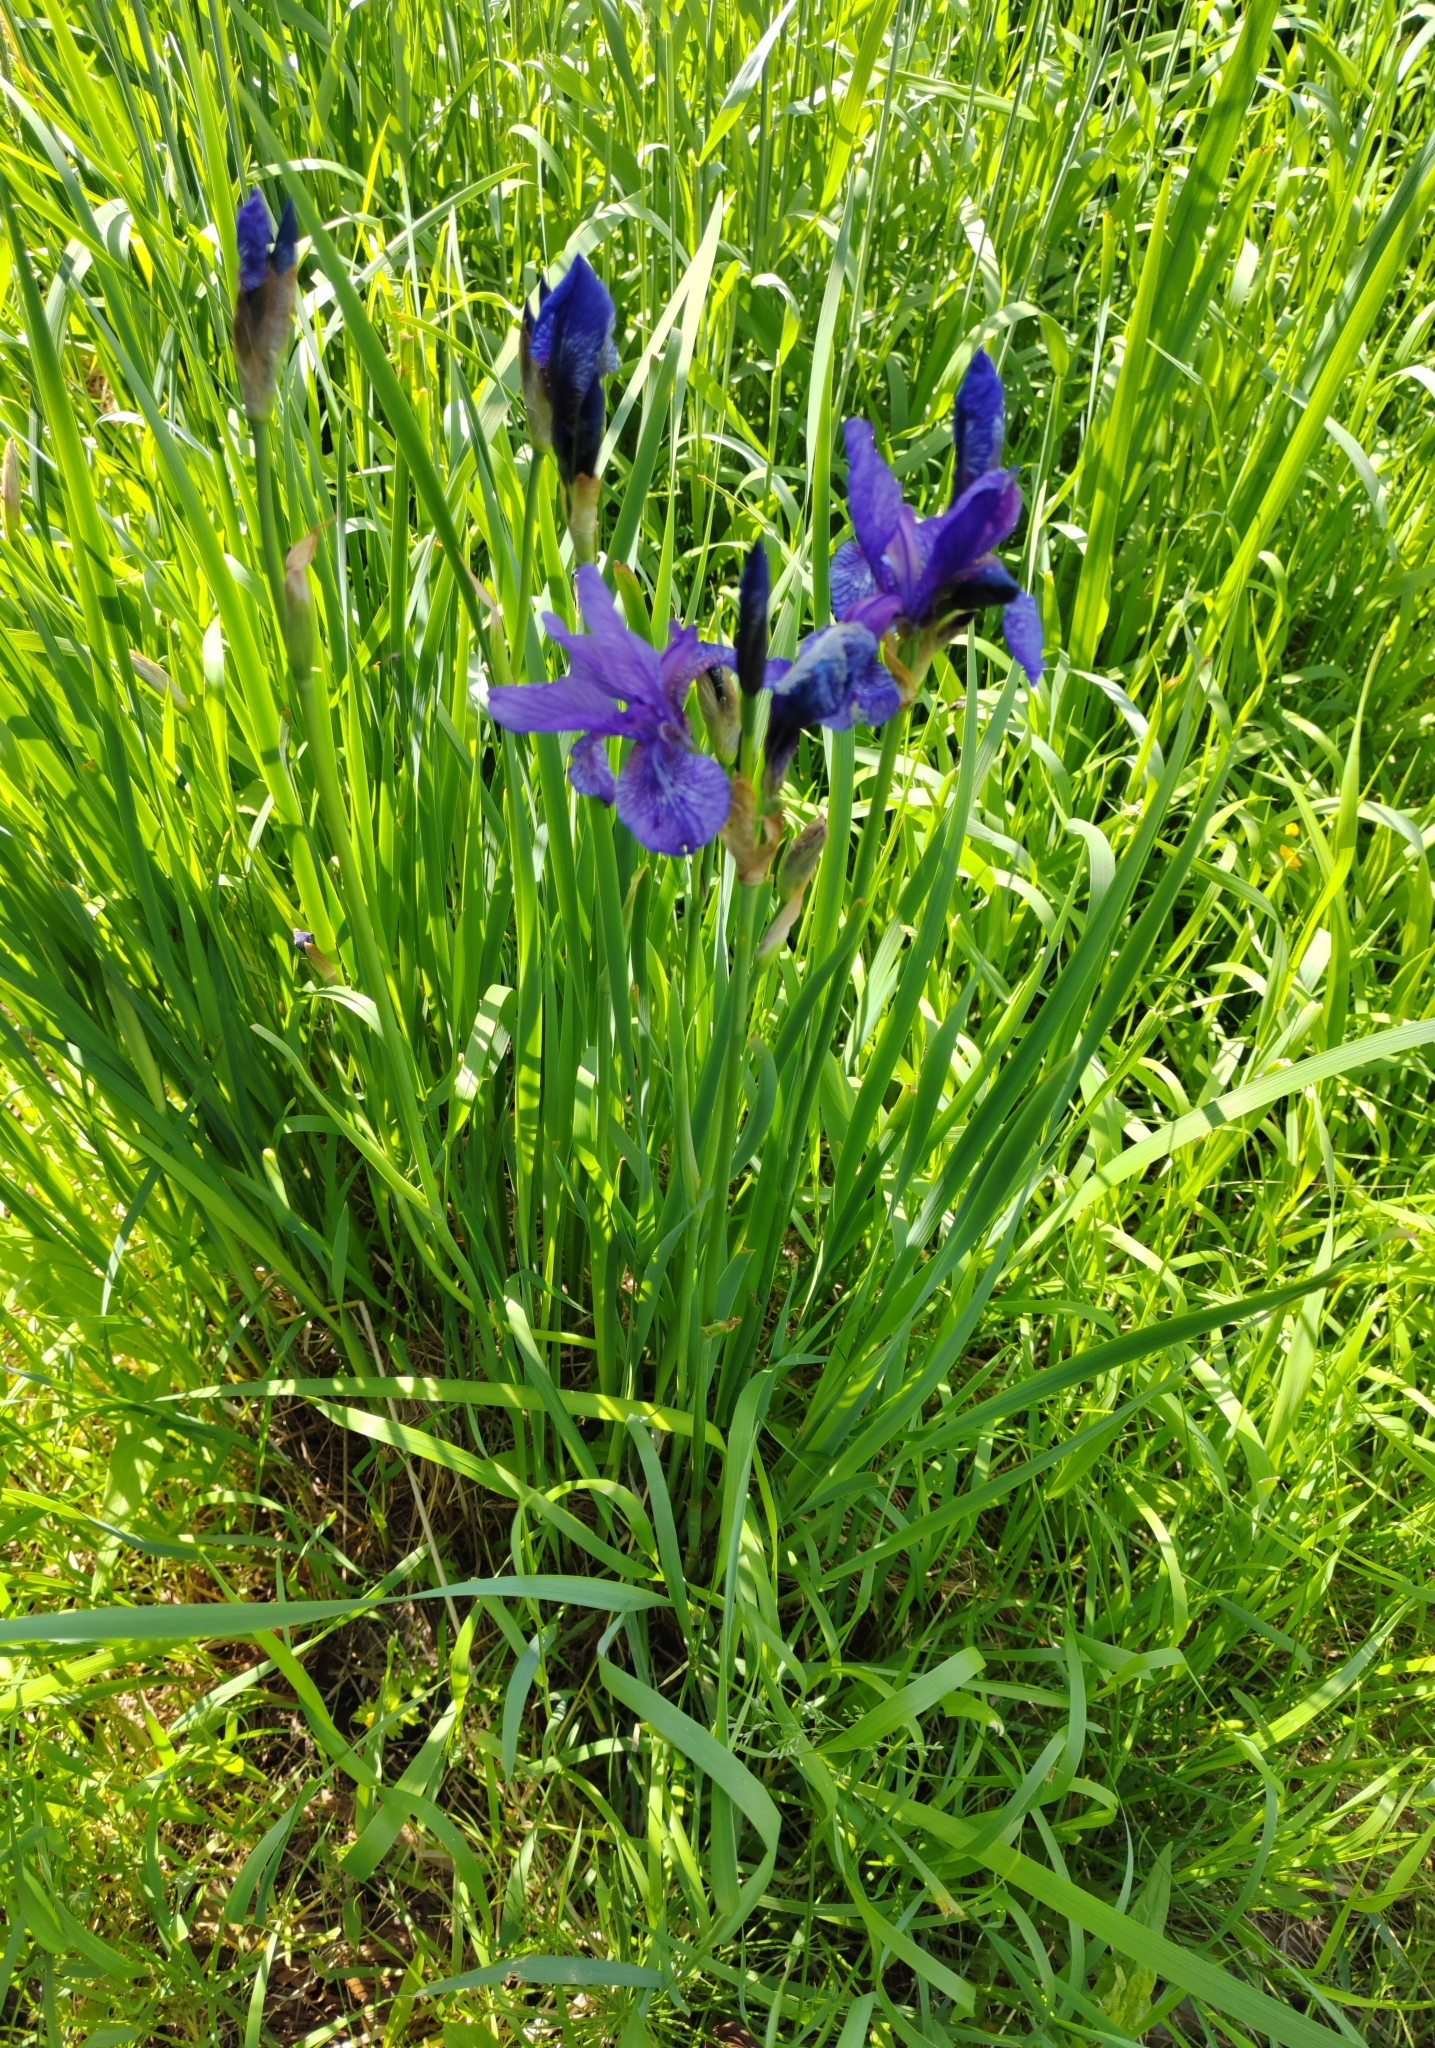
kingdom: Plantae
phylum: Tracheophyta
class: Liliopsida
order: Asparagales
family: Iridaceae
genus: Iris
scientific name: Iris sibirica
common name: Siberian iris
